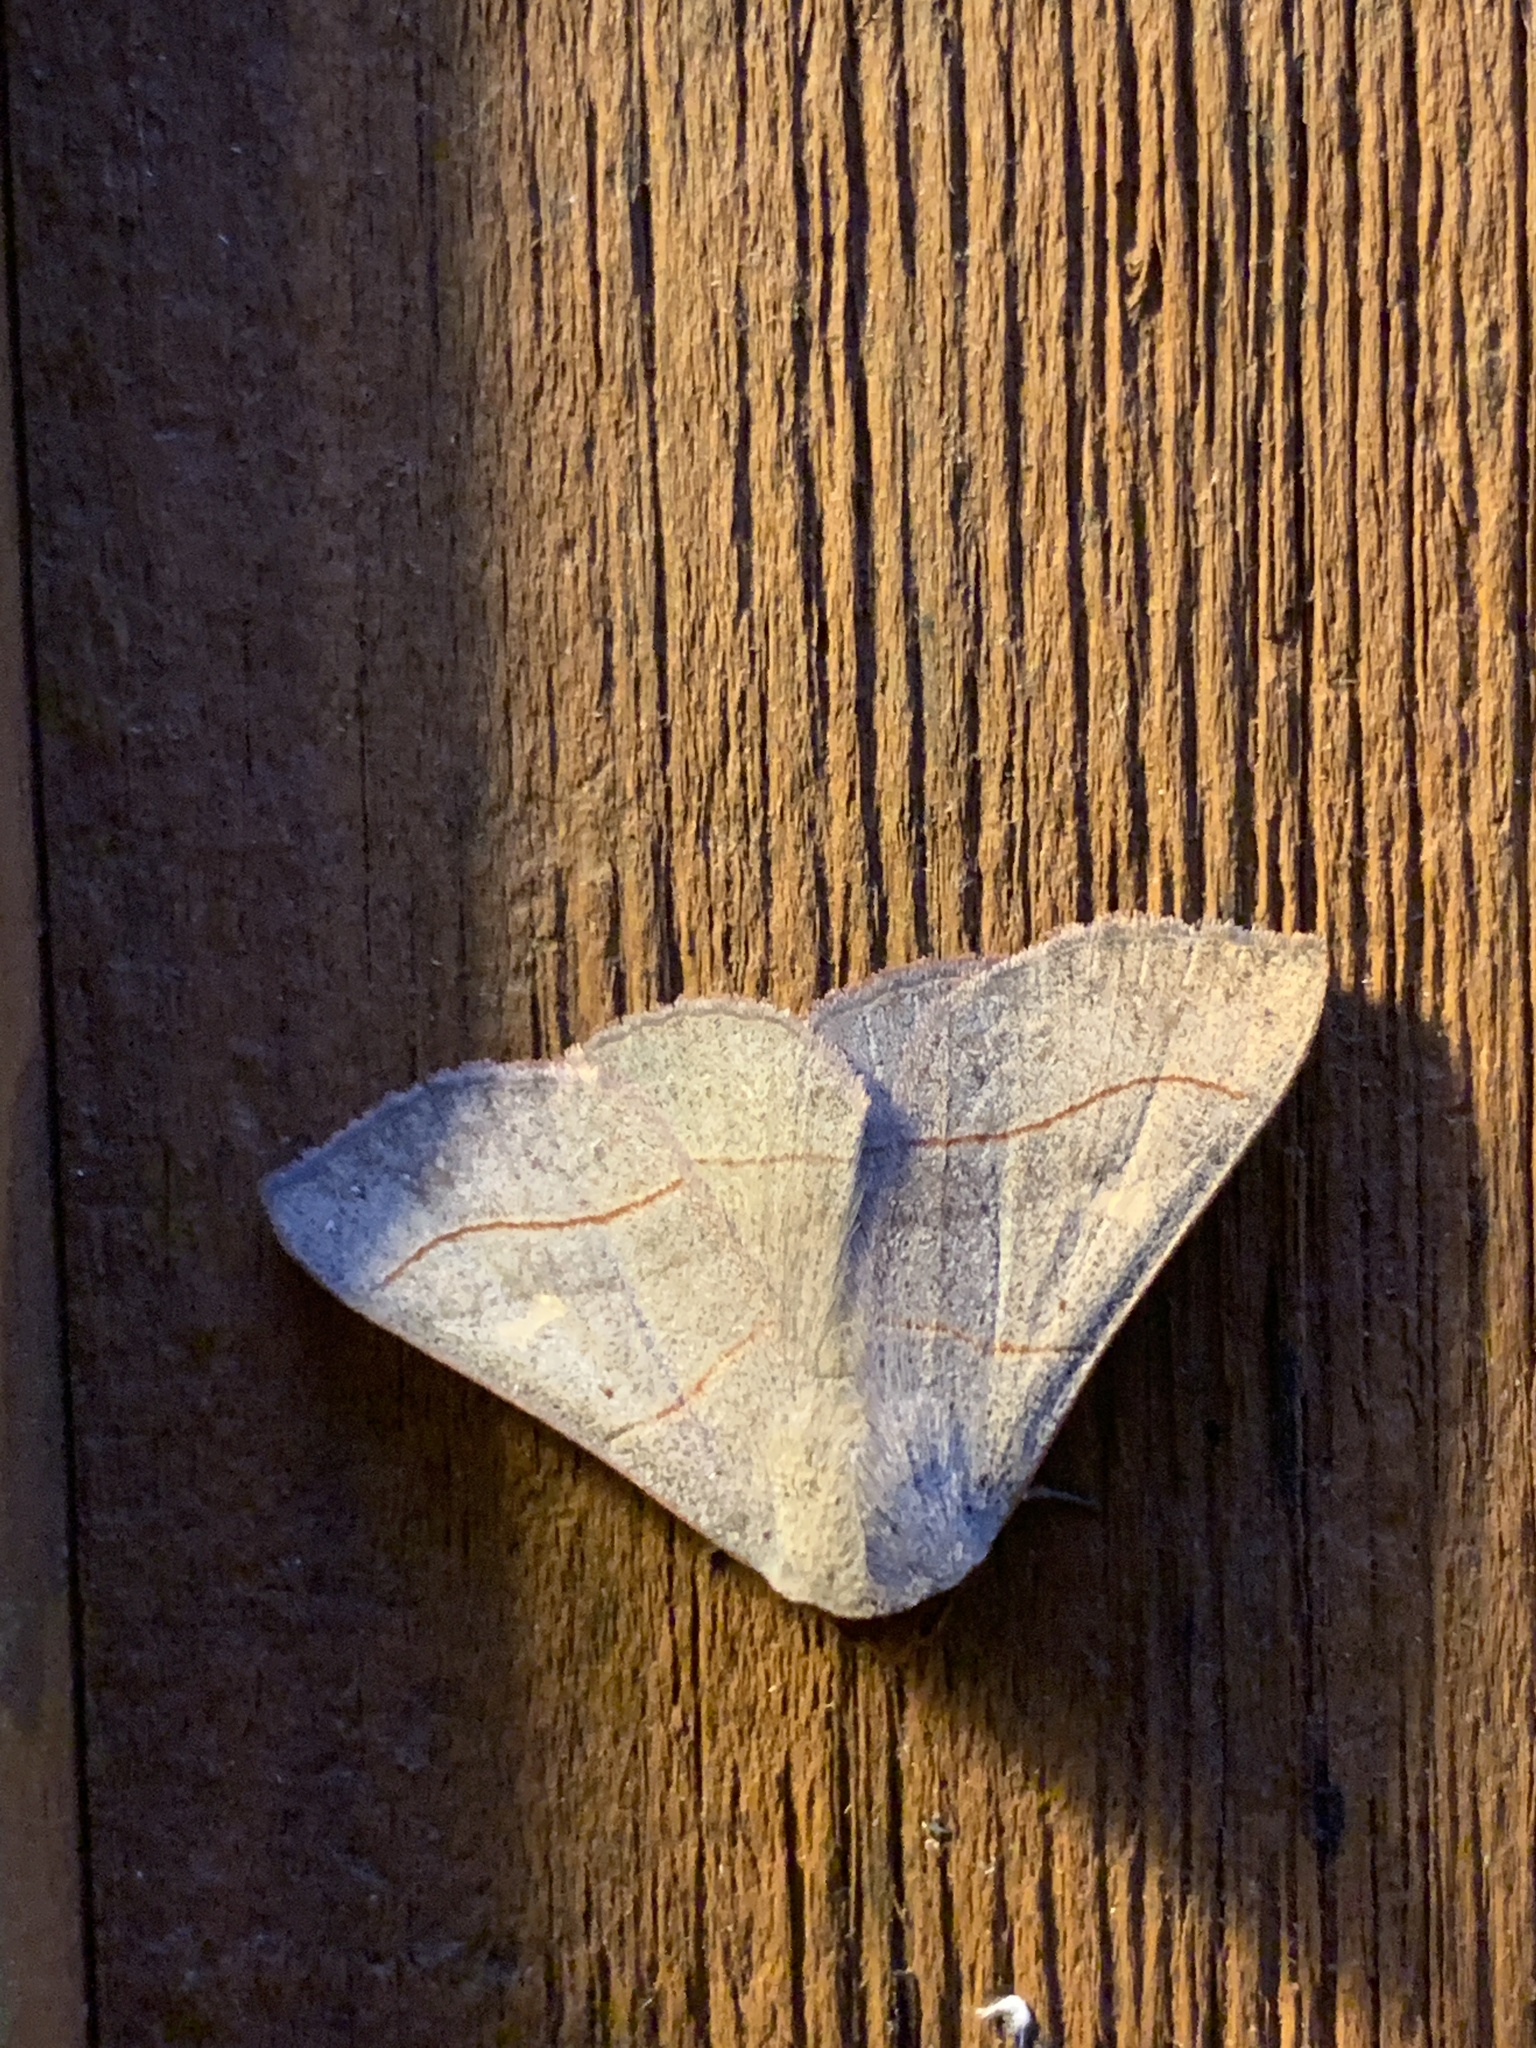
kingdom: Animalia
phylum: Arthropoda
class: Insecta
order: Lepidoptera
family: Erebidae
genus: Panopoda
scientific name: Panopoda rufimargo
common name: Red-lined panopoda moth
